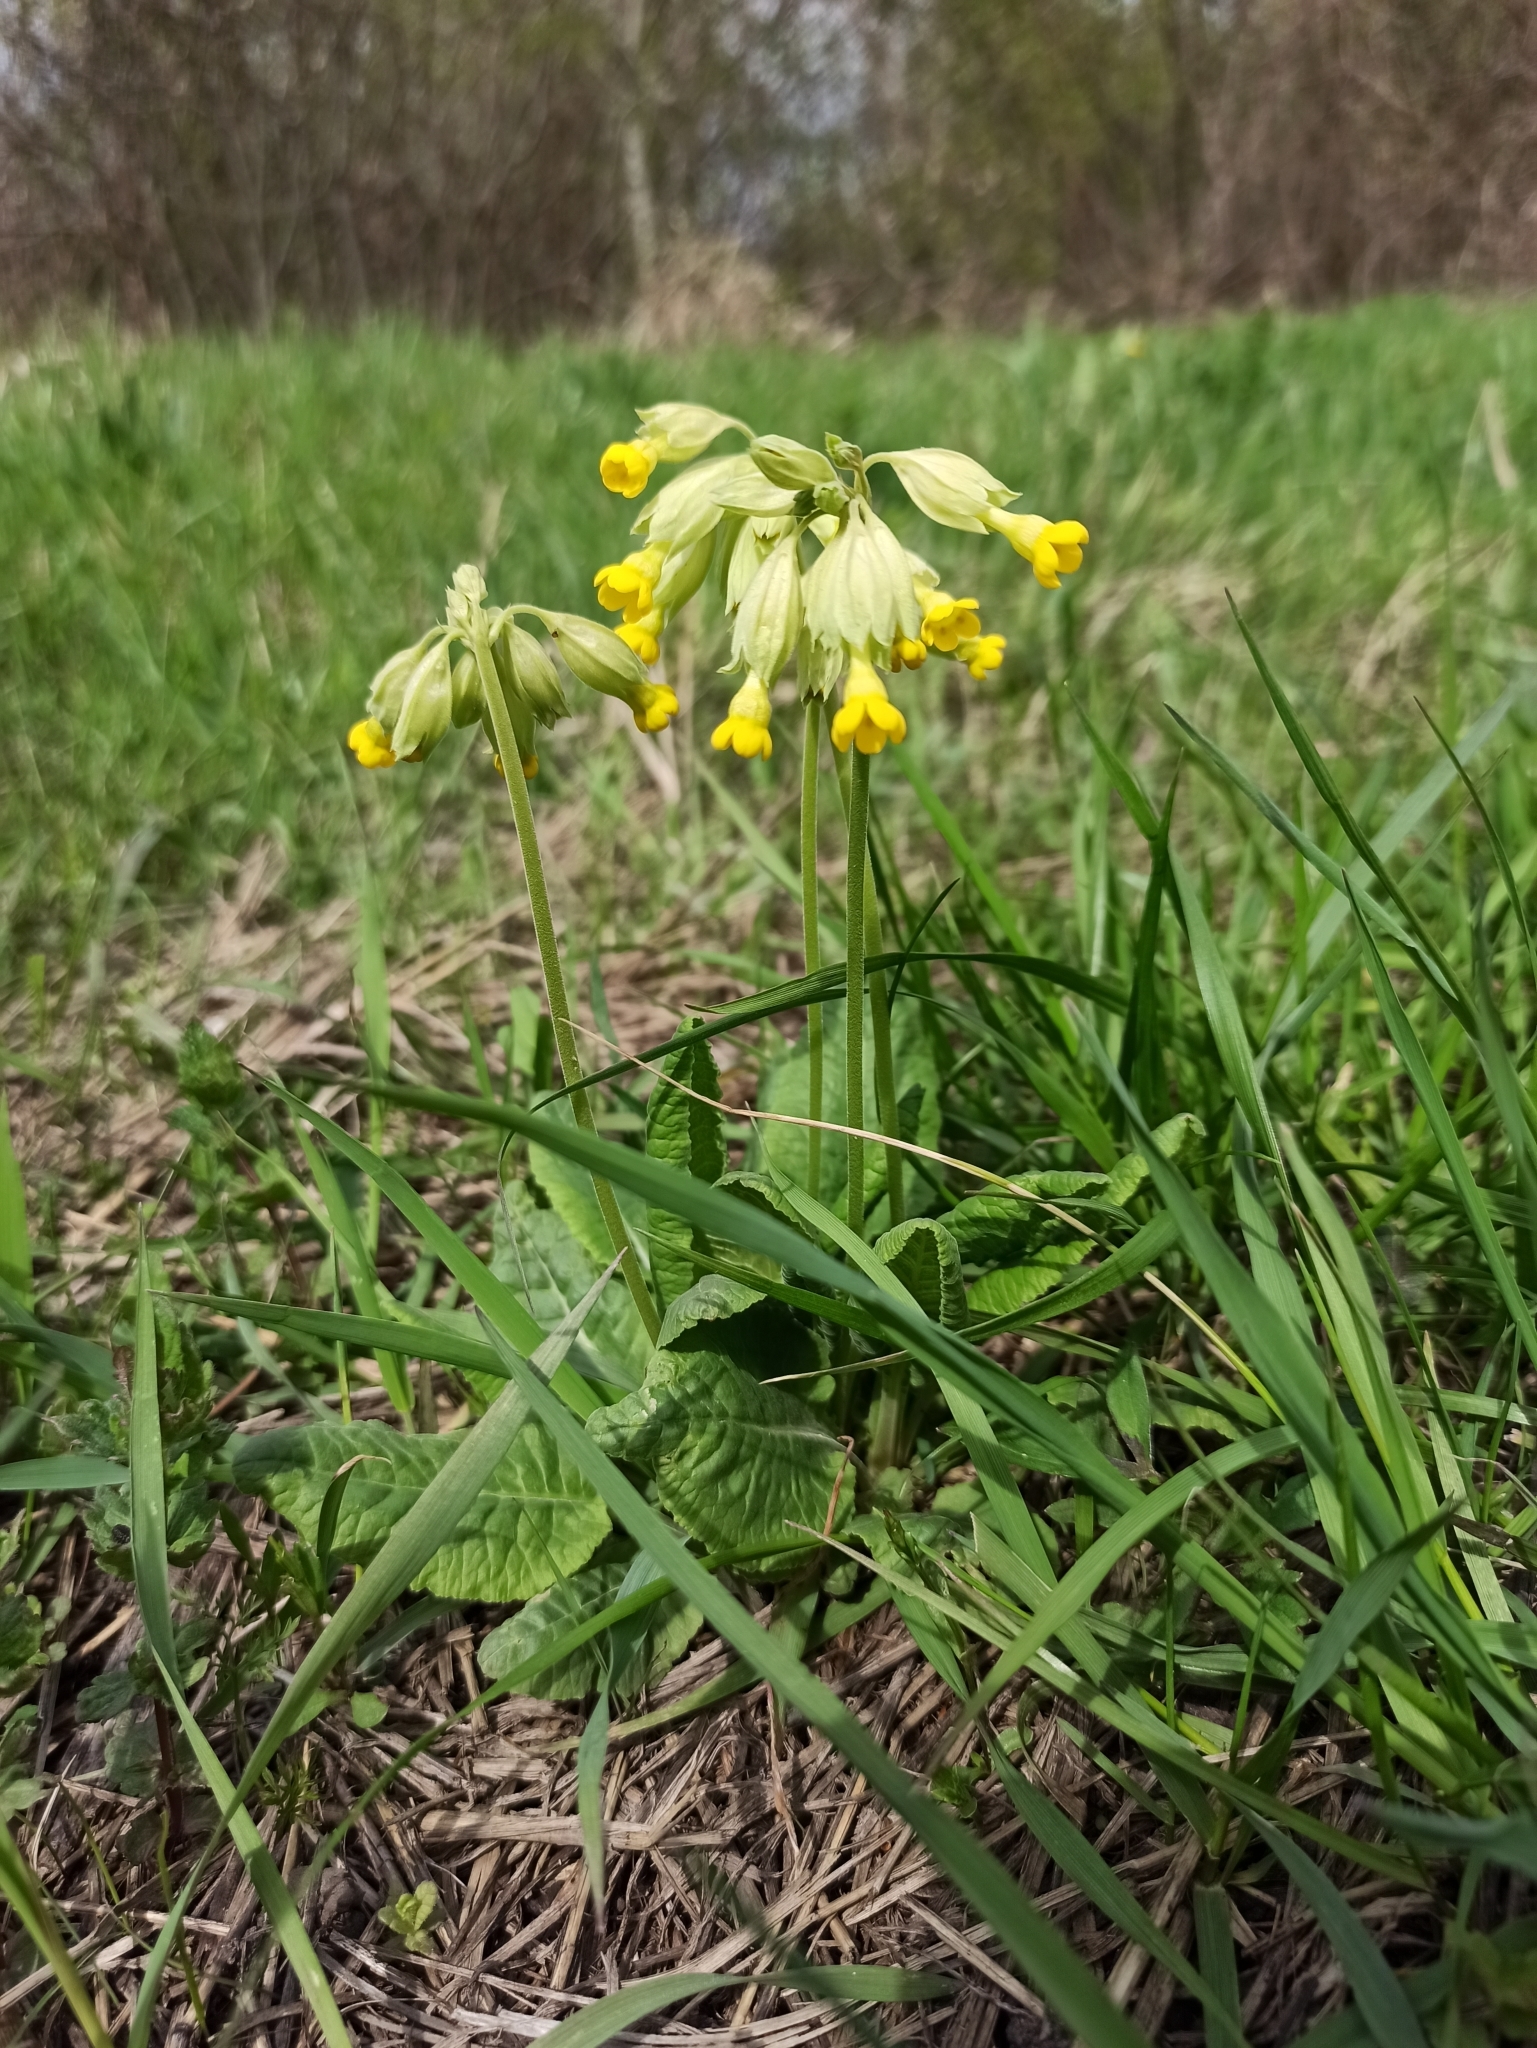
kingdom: Plantae
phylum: Tracheophyta
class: Magnoliopsida
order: Ericales
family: Primulaceae
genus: Primula
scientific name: Primula veris
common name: Cowslip
